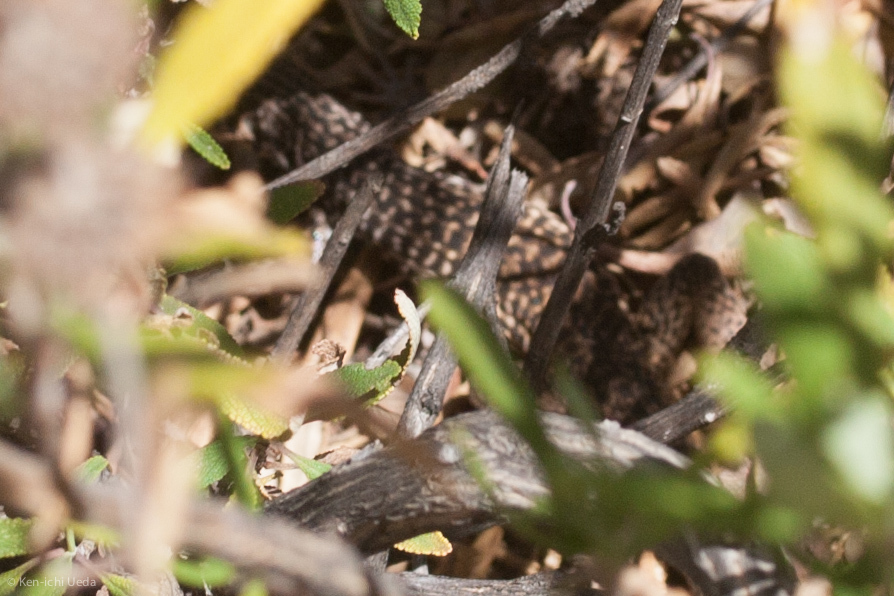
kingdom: Animalia
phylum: Chordata
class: Squamata
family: Teiidae
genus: Aspidoscelis
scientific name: Aspidoscelis tigris
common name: Tiger whiptail
